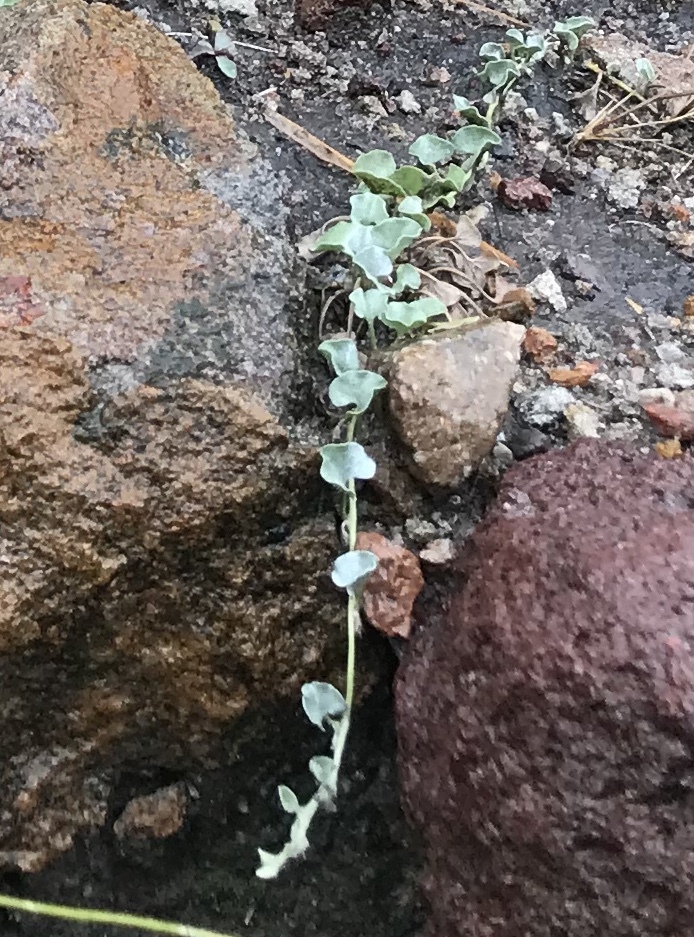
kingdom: Plantae
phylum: Tracheophyta
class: Magnoliopsida
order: Solanales
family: Convolvulaceae
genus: Dichondra
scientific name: Dichondra argentea
